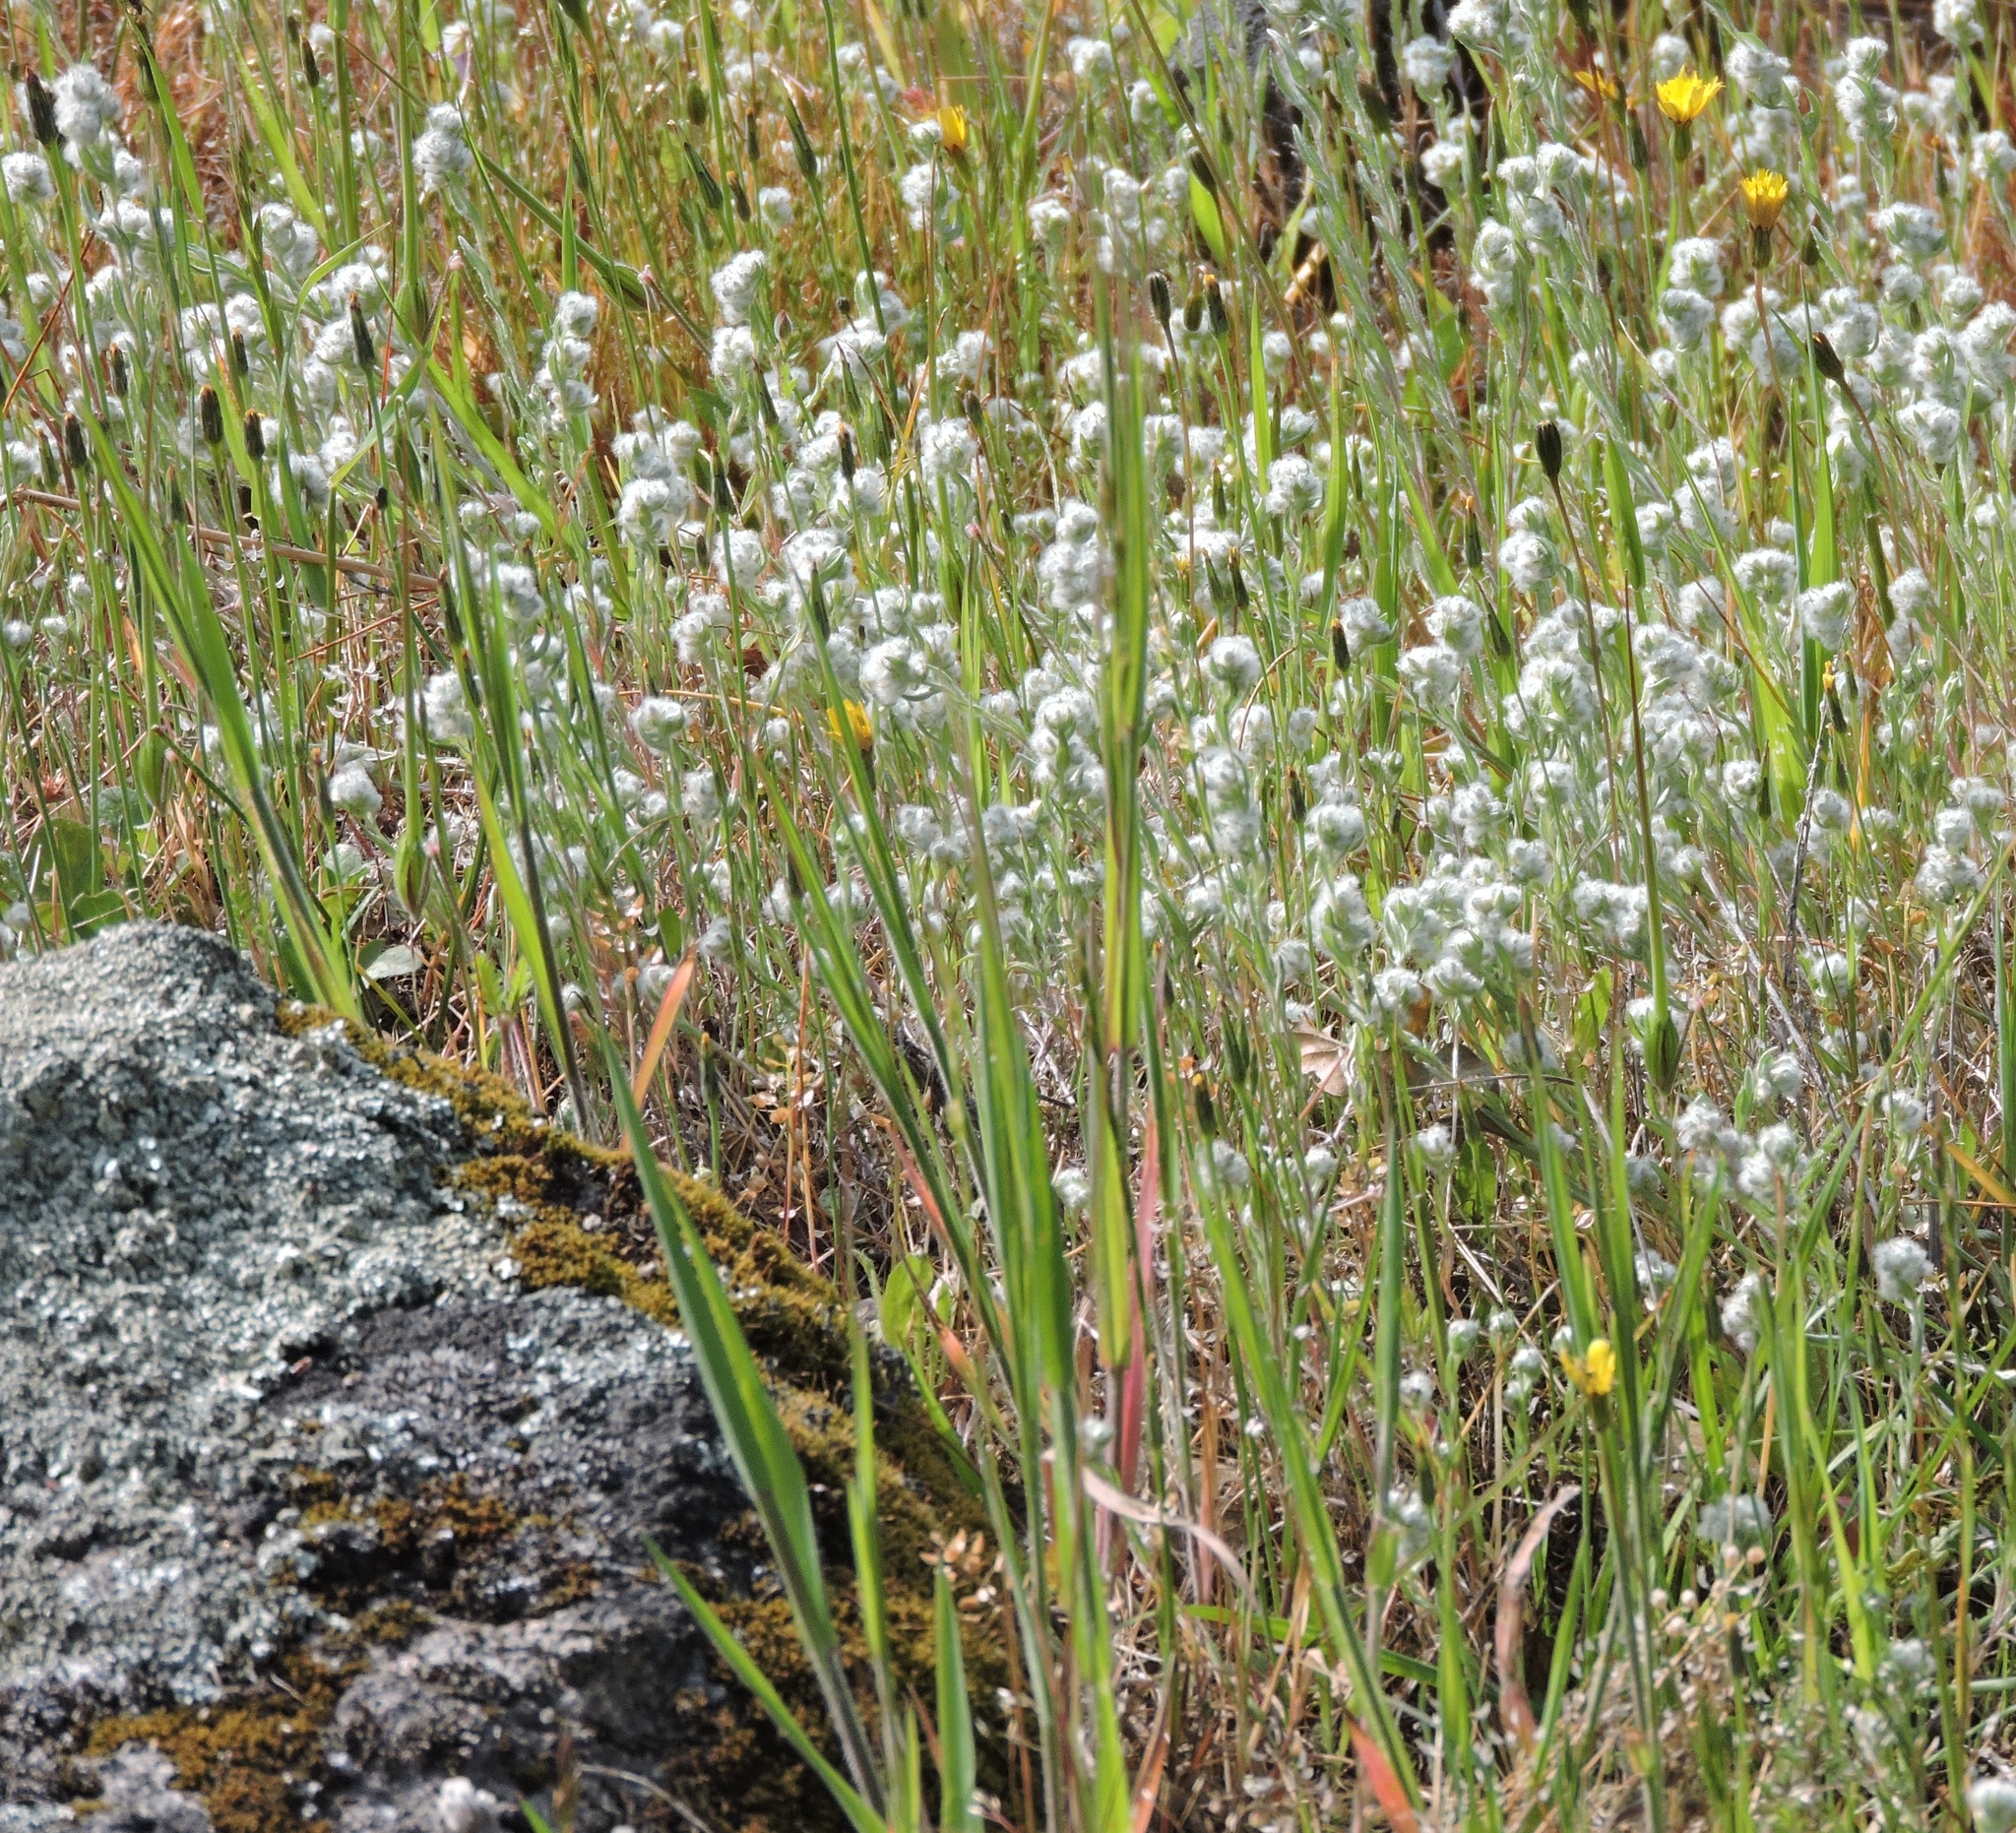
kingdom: Plantae
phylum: Tracheophyta
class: Magnoliopsida
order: Asterales
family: Asteraceae
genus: Bombycilaena
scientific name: Bombycilaena californica
